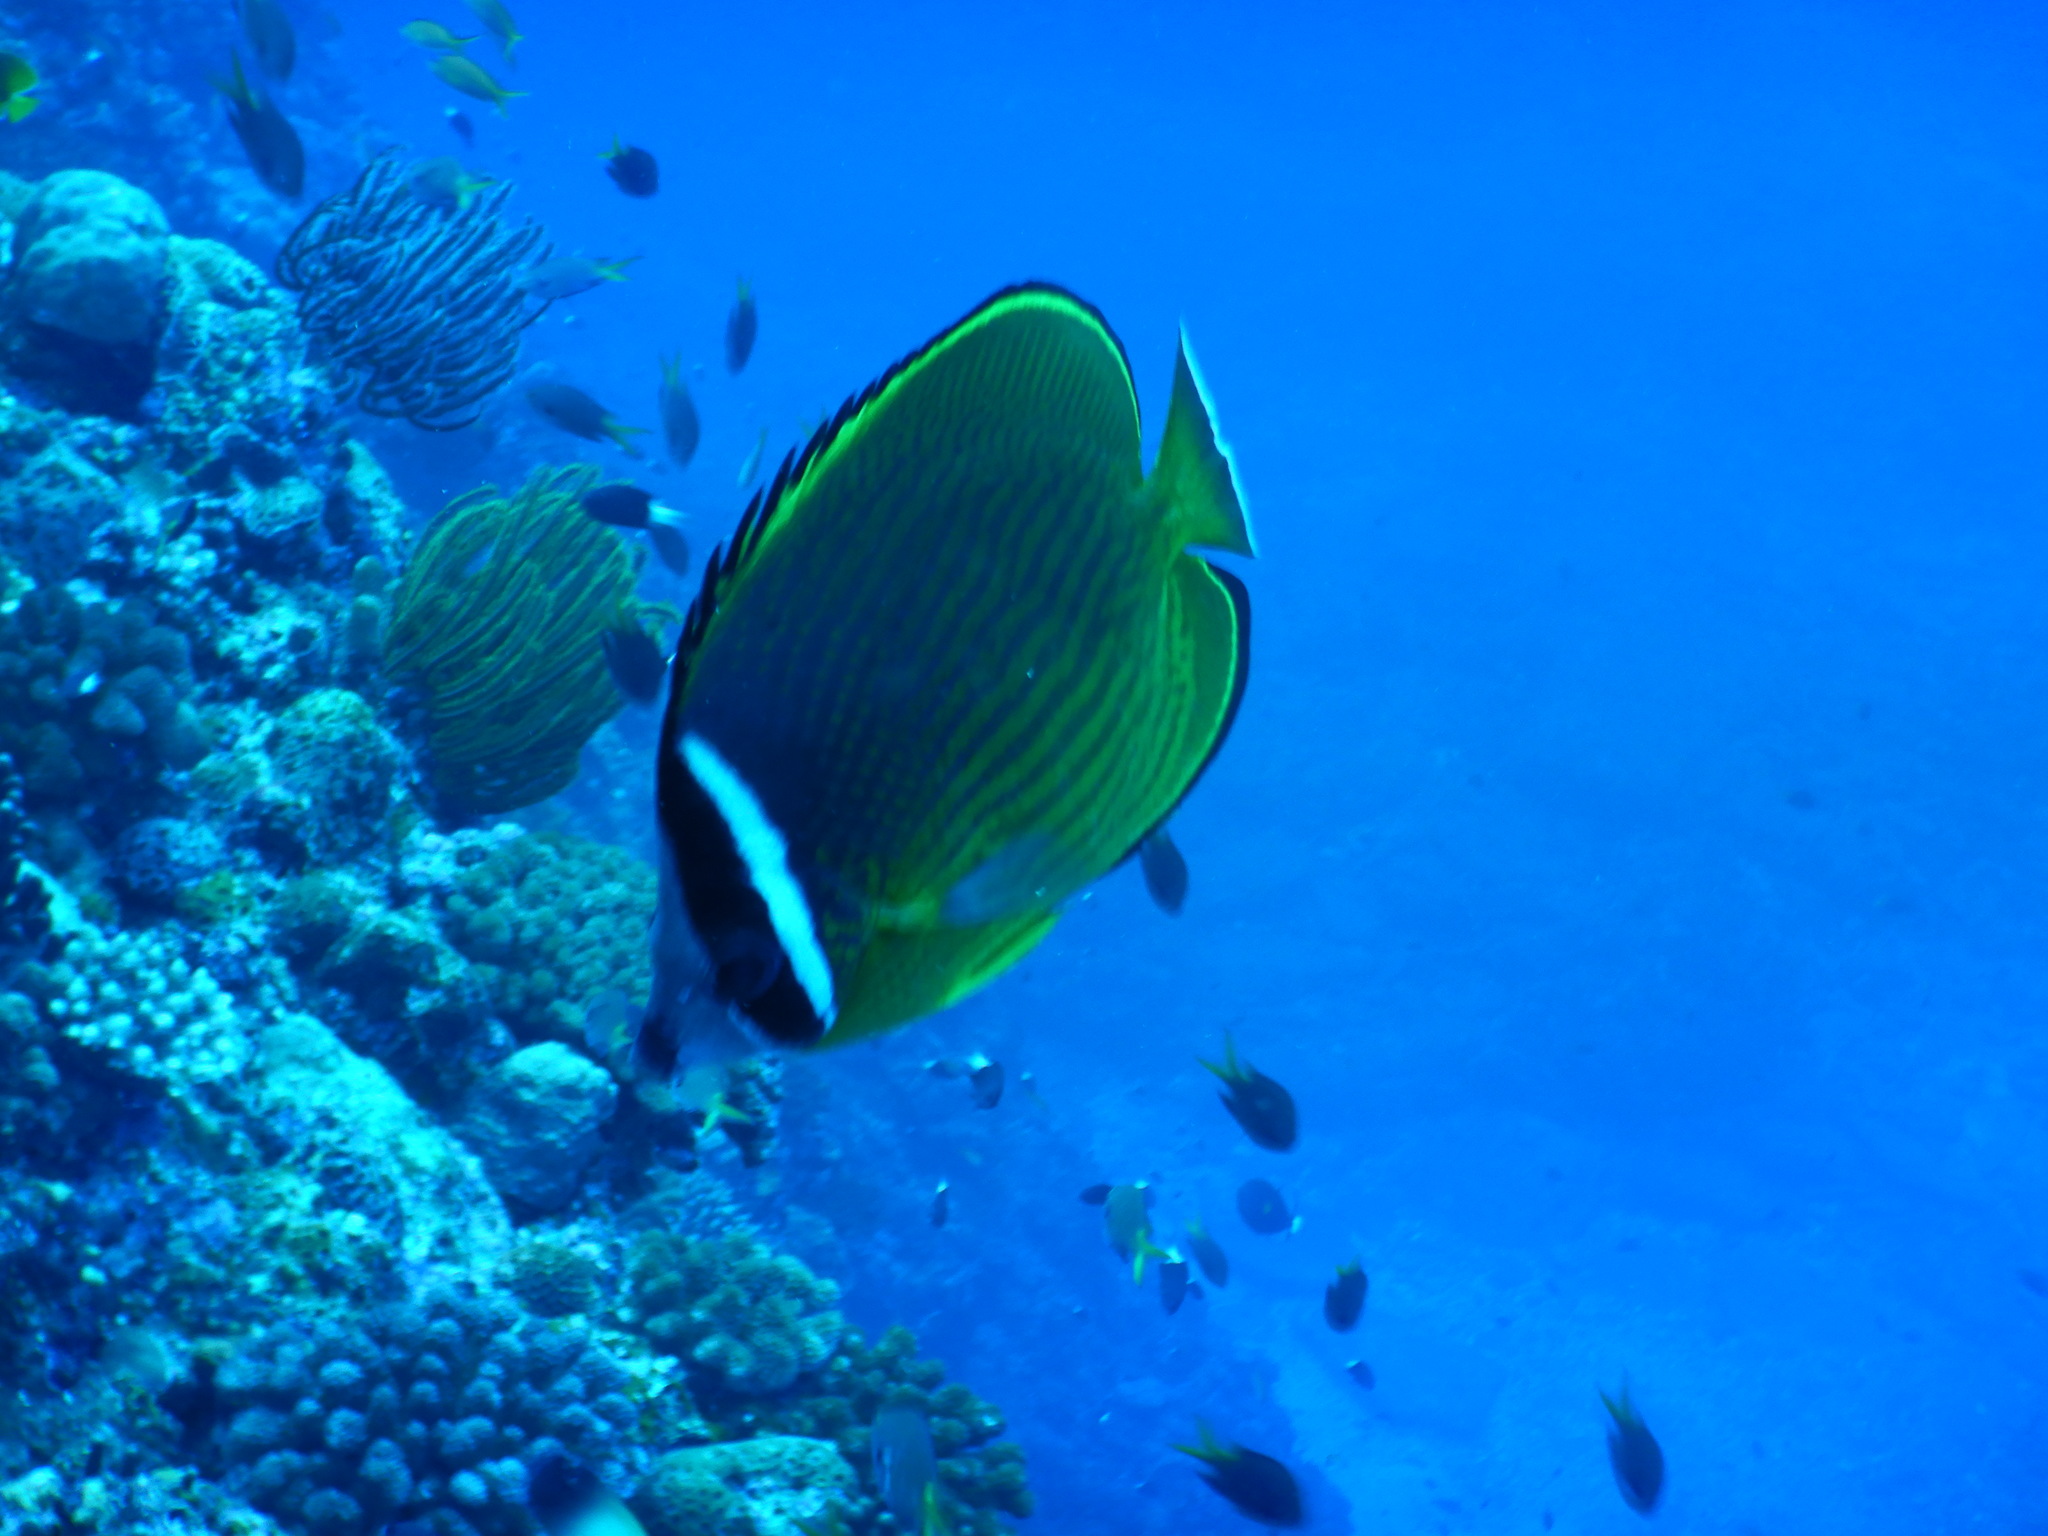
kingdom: Animalia
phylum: Chordata
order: Perciformes
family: Chaetodontidae
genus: Chaetodon
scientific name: Chaetodon auripes
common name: Oriental butterflyfish
